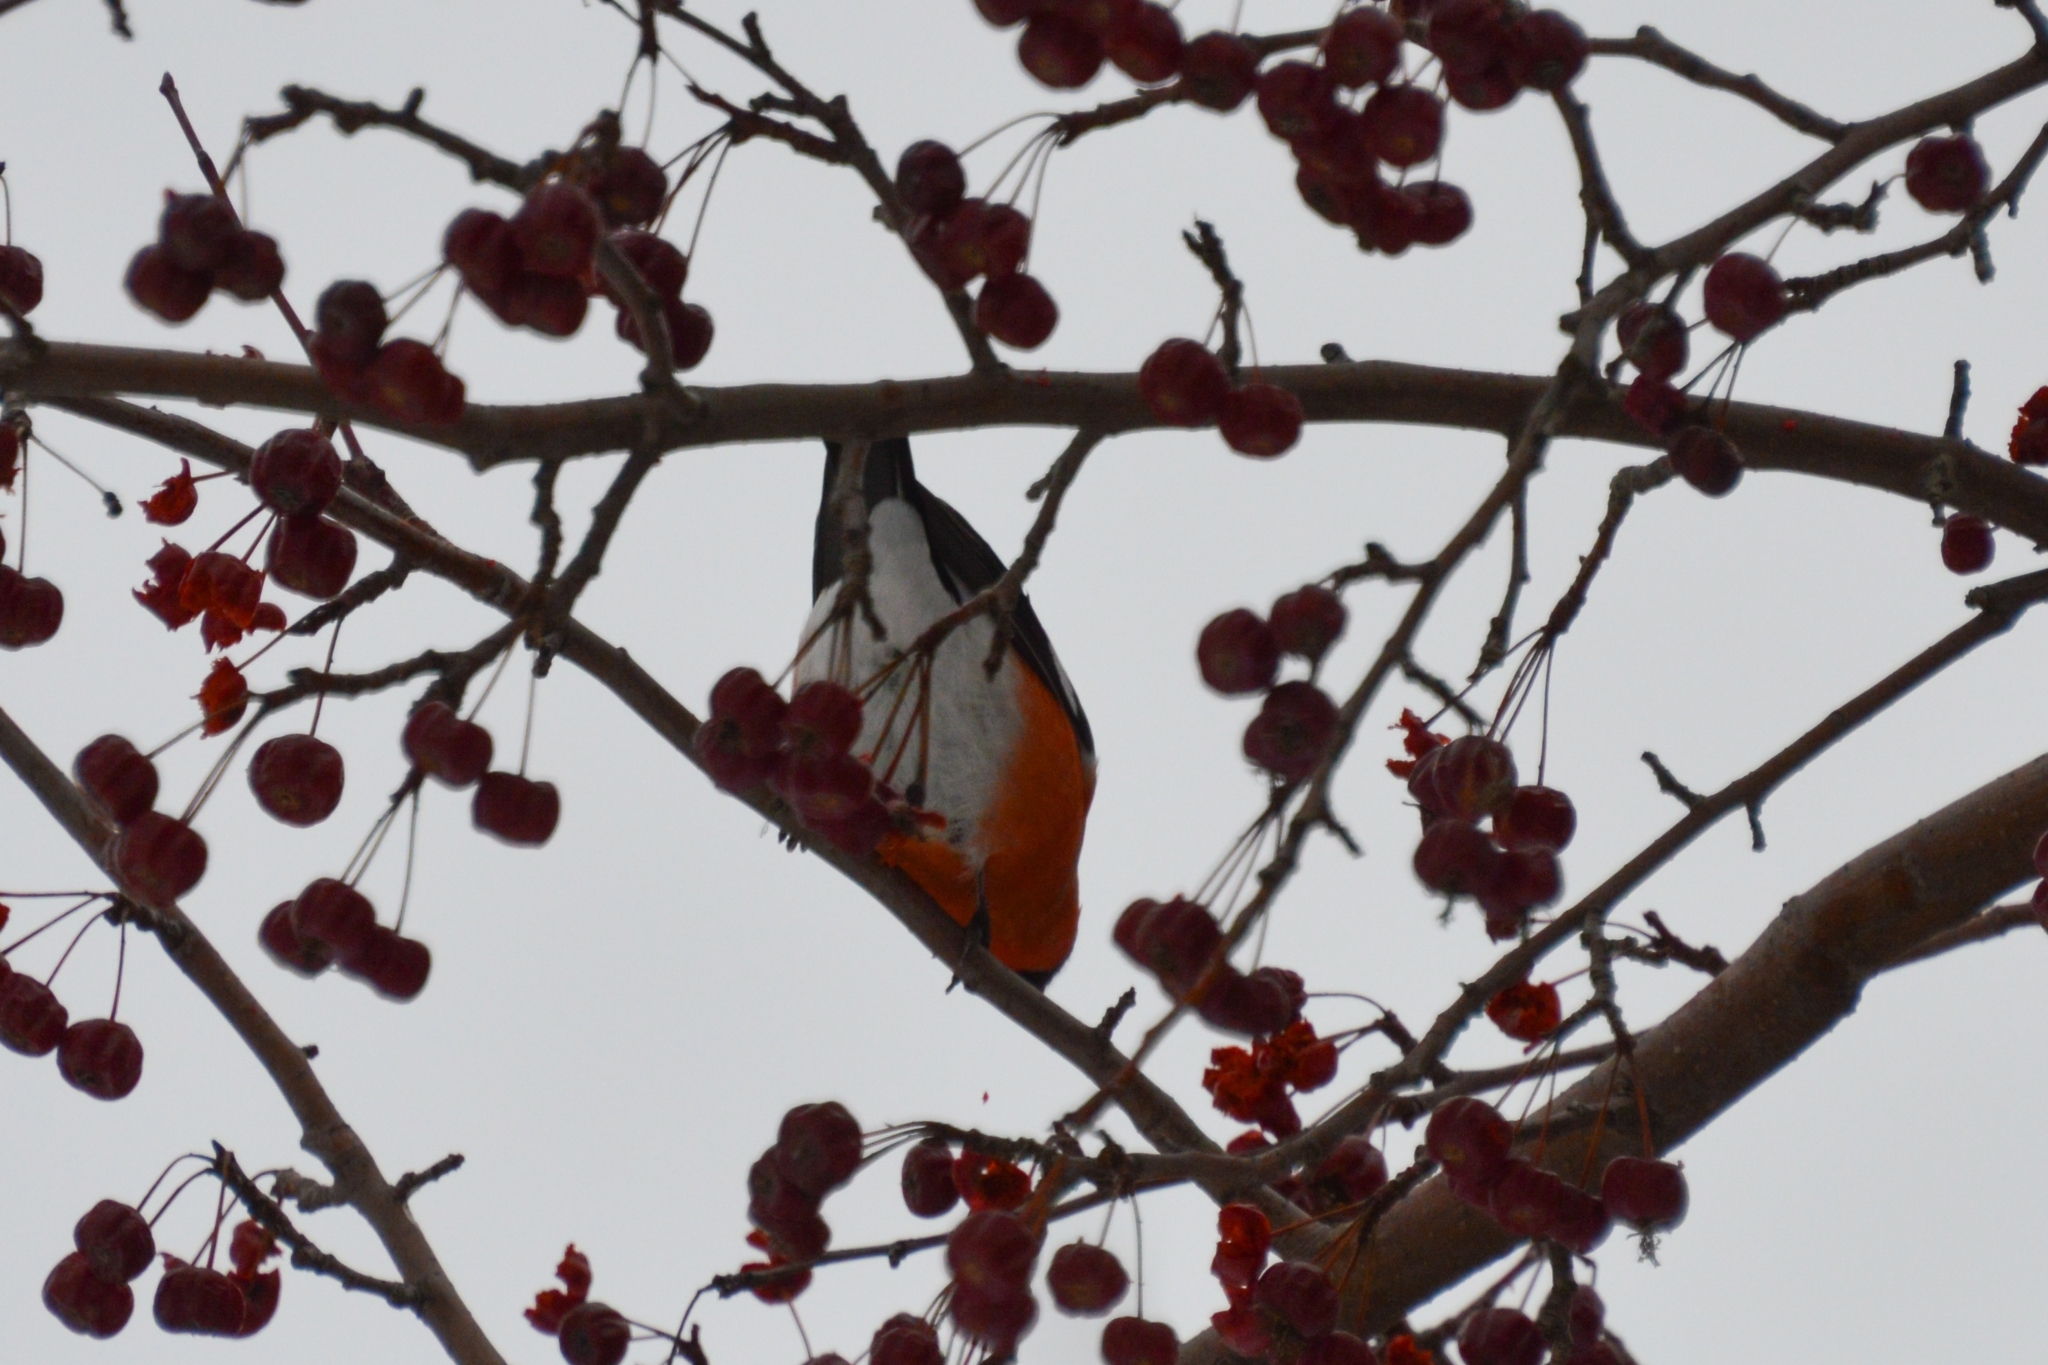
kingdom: Animalia
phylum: Chordata
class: Aves
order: Passeriformes
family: Fringillidae
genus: Pyrrhula
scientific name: Pyrrhula pyrrhula
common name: Eurasian bullfinch
